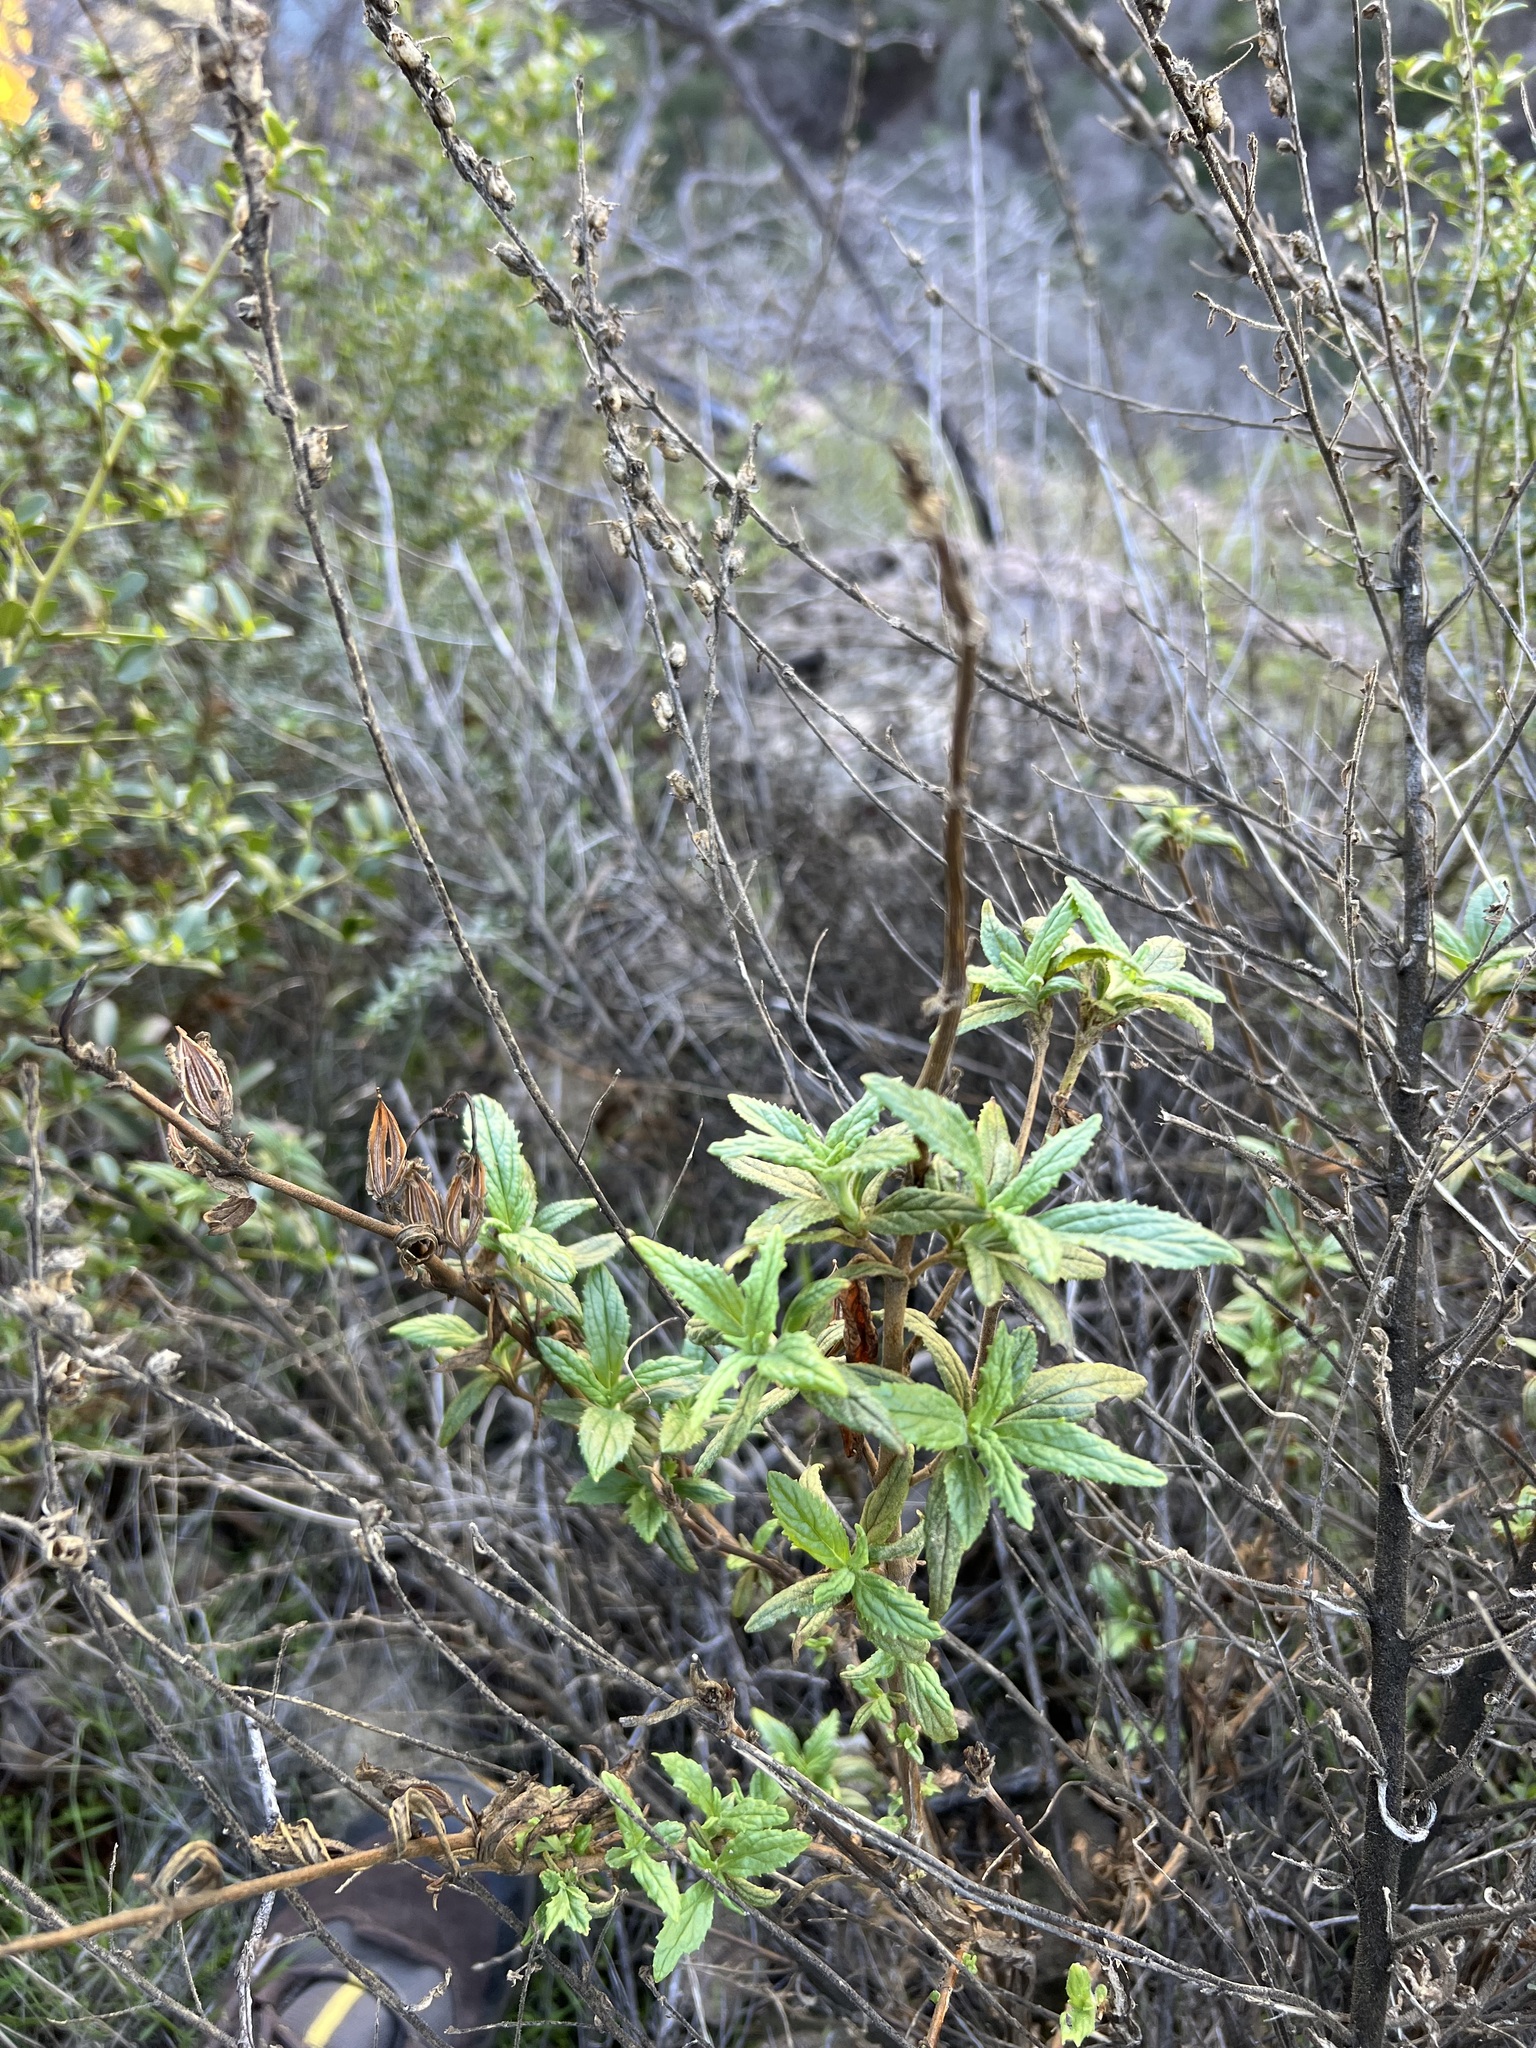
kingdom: Plantae
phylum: Tracheophyta
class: Magnoliopsida
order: Lamiales
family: Phrymaceae
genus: Diplacus
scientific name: Diplacus longiflorus
